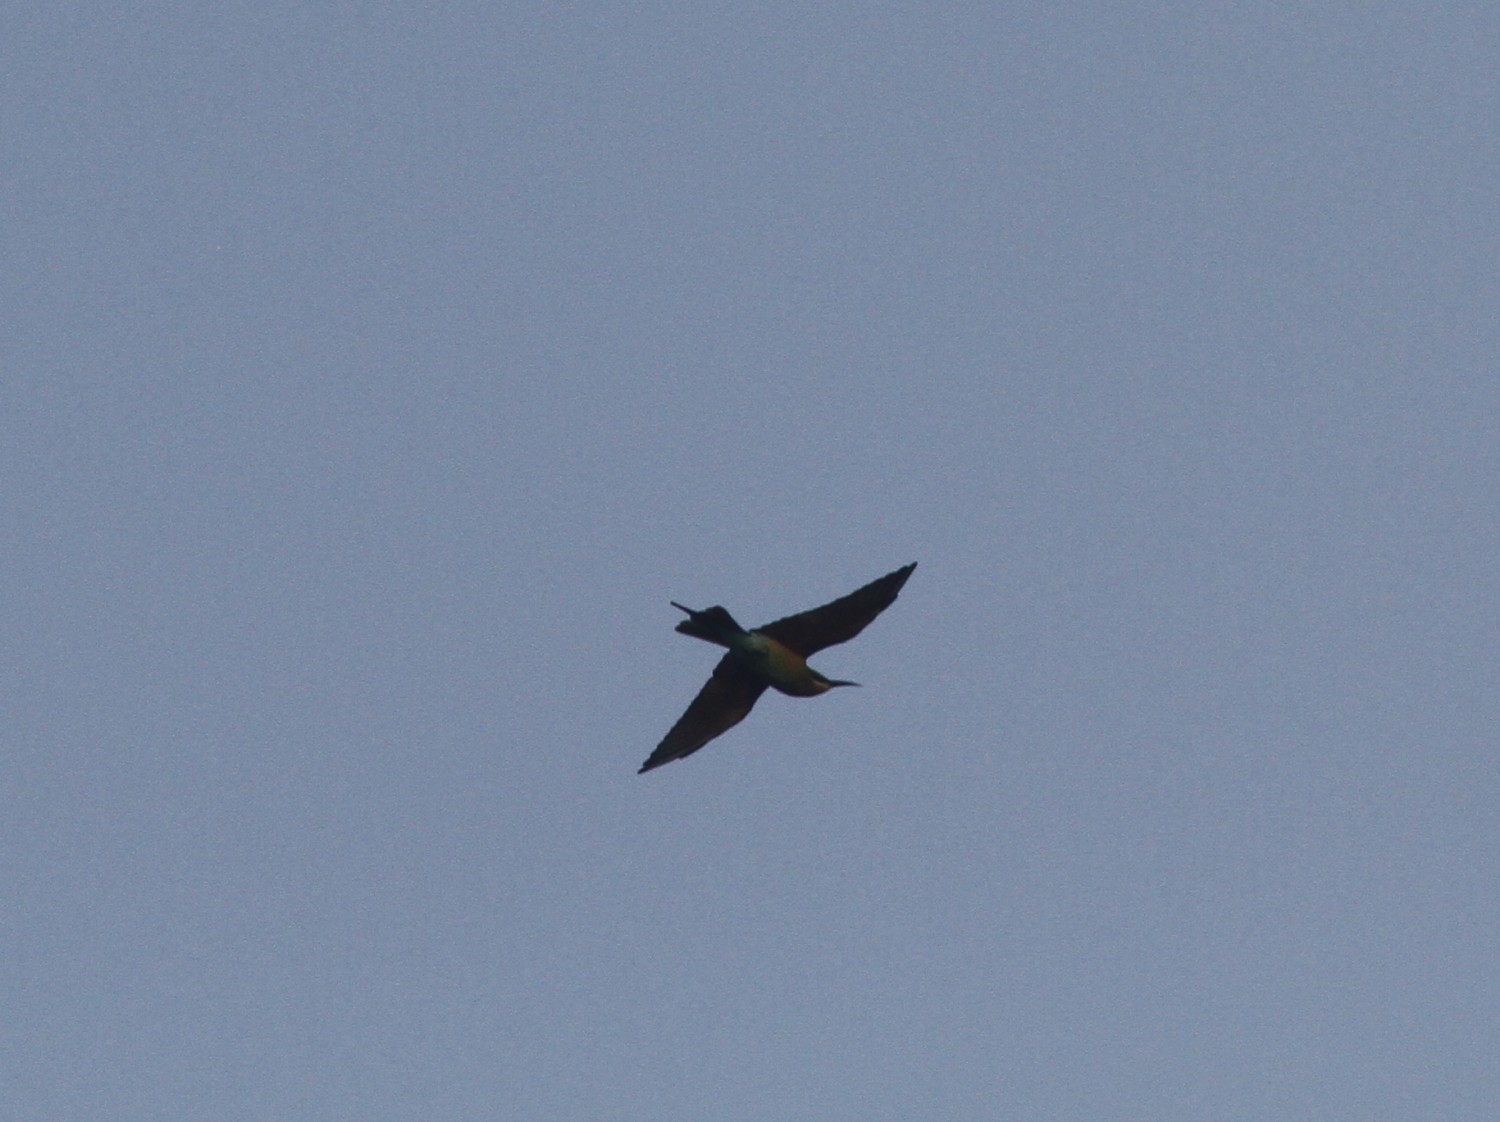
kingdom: Animalia
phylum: Chordata
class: Aves
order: Coraciiformes
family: Meropidae
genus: Merops
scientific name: Merops philippinus
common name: Blue-tailed bee-eater
